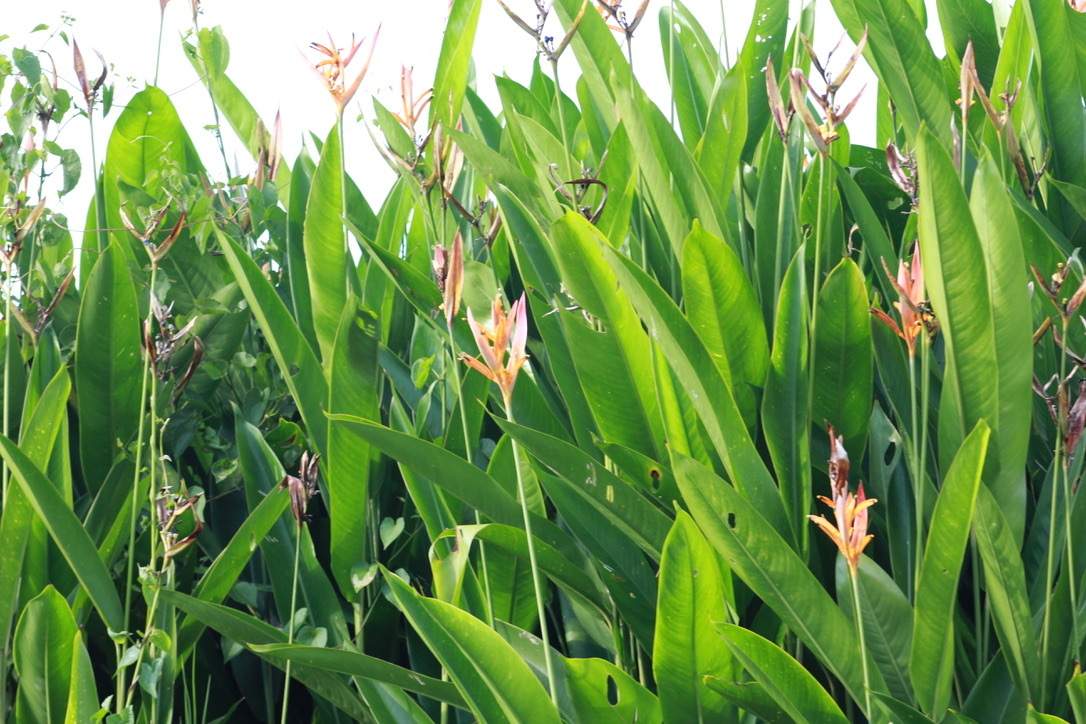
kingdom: Plantae
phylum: Tracheophyta
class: Liliopsida
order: Zingiberales
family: Heliconiaceae
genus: Heliconia
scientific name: Heliconia psittacorum
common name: Parrot's-flower
